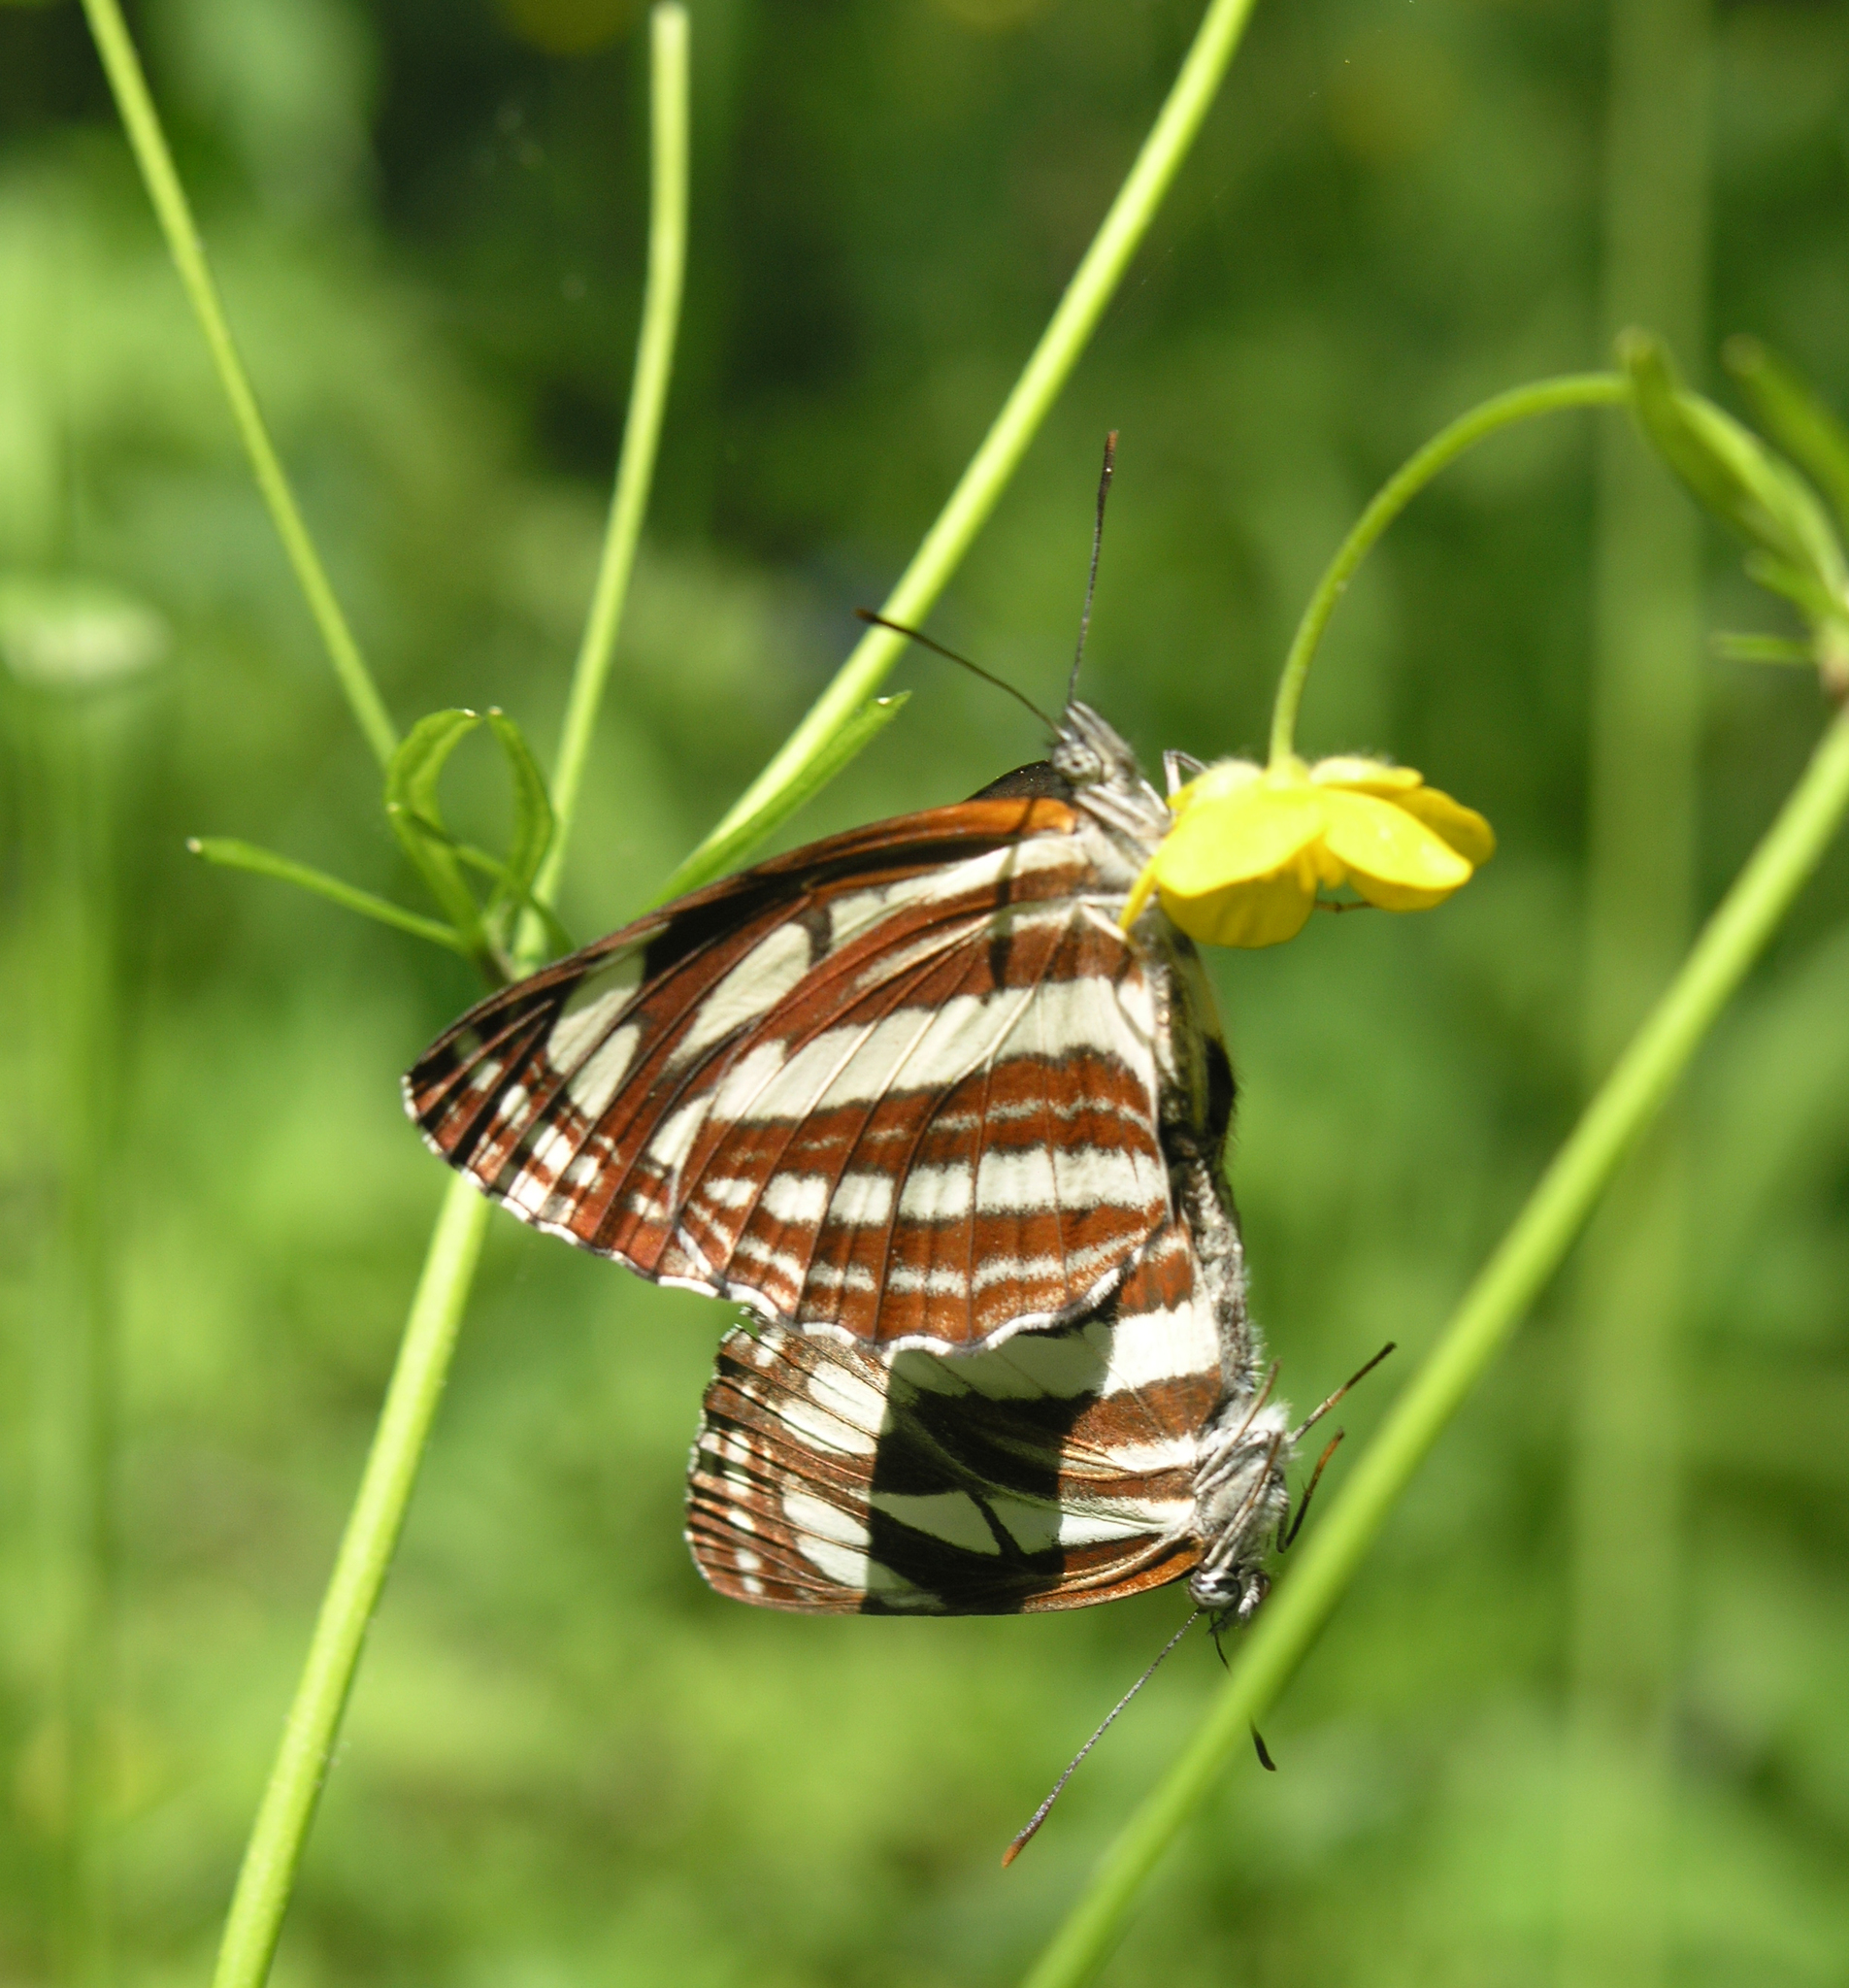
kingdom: Animalia
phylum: Arthropoda
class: Insecta
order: Lepidoptera
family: Nymphalidae
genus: Neptis
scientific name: Neptis sappho
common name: Common glider
